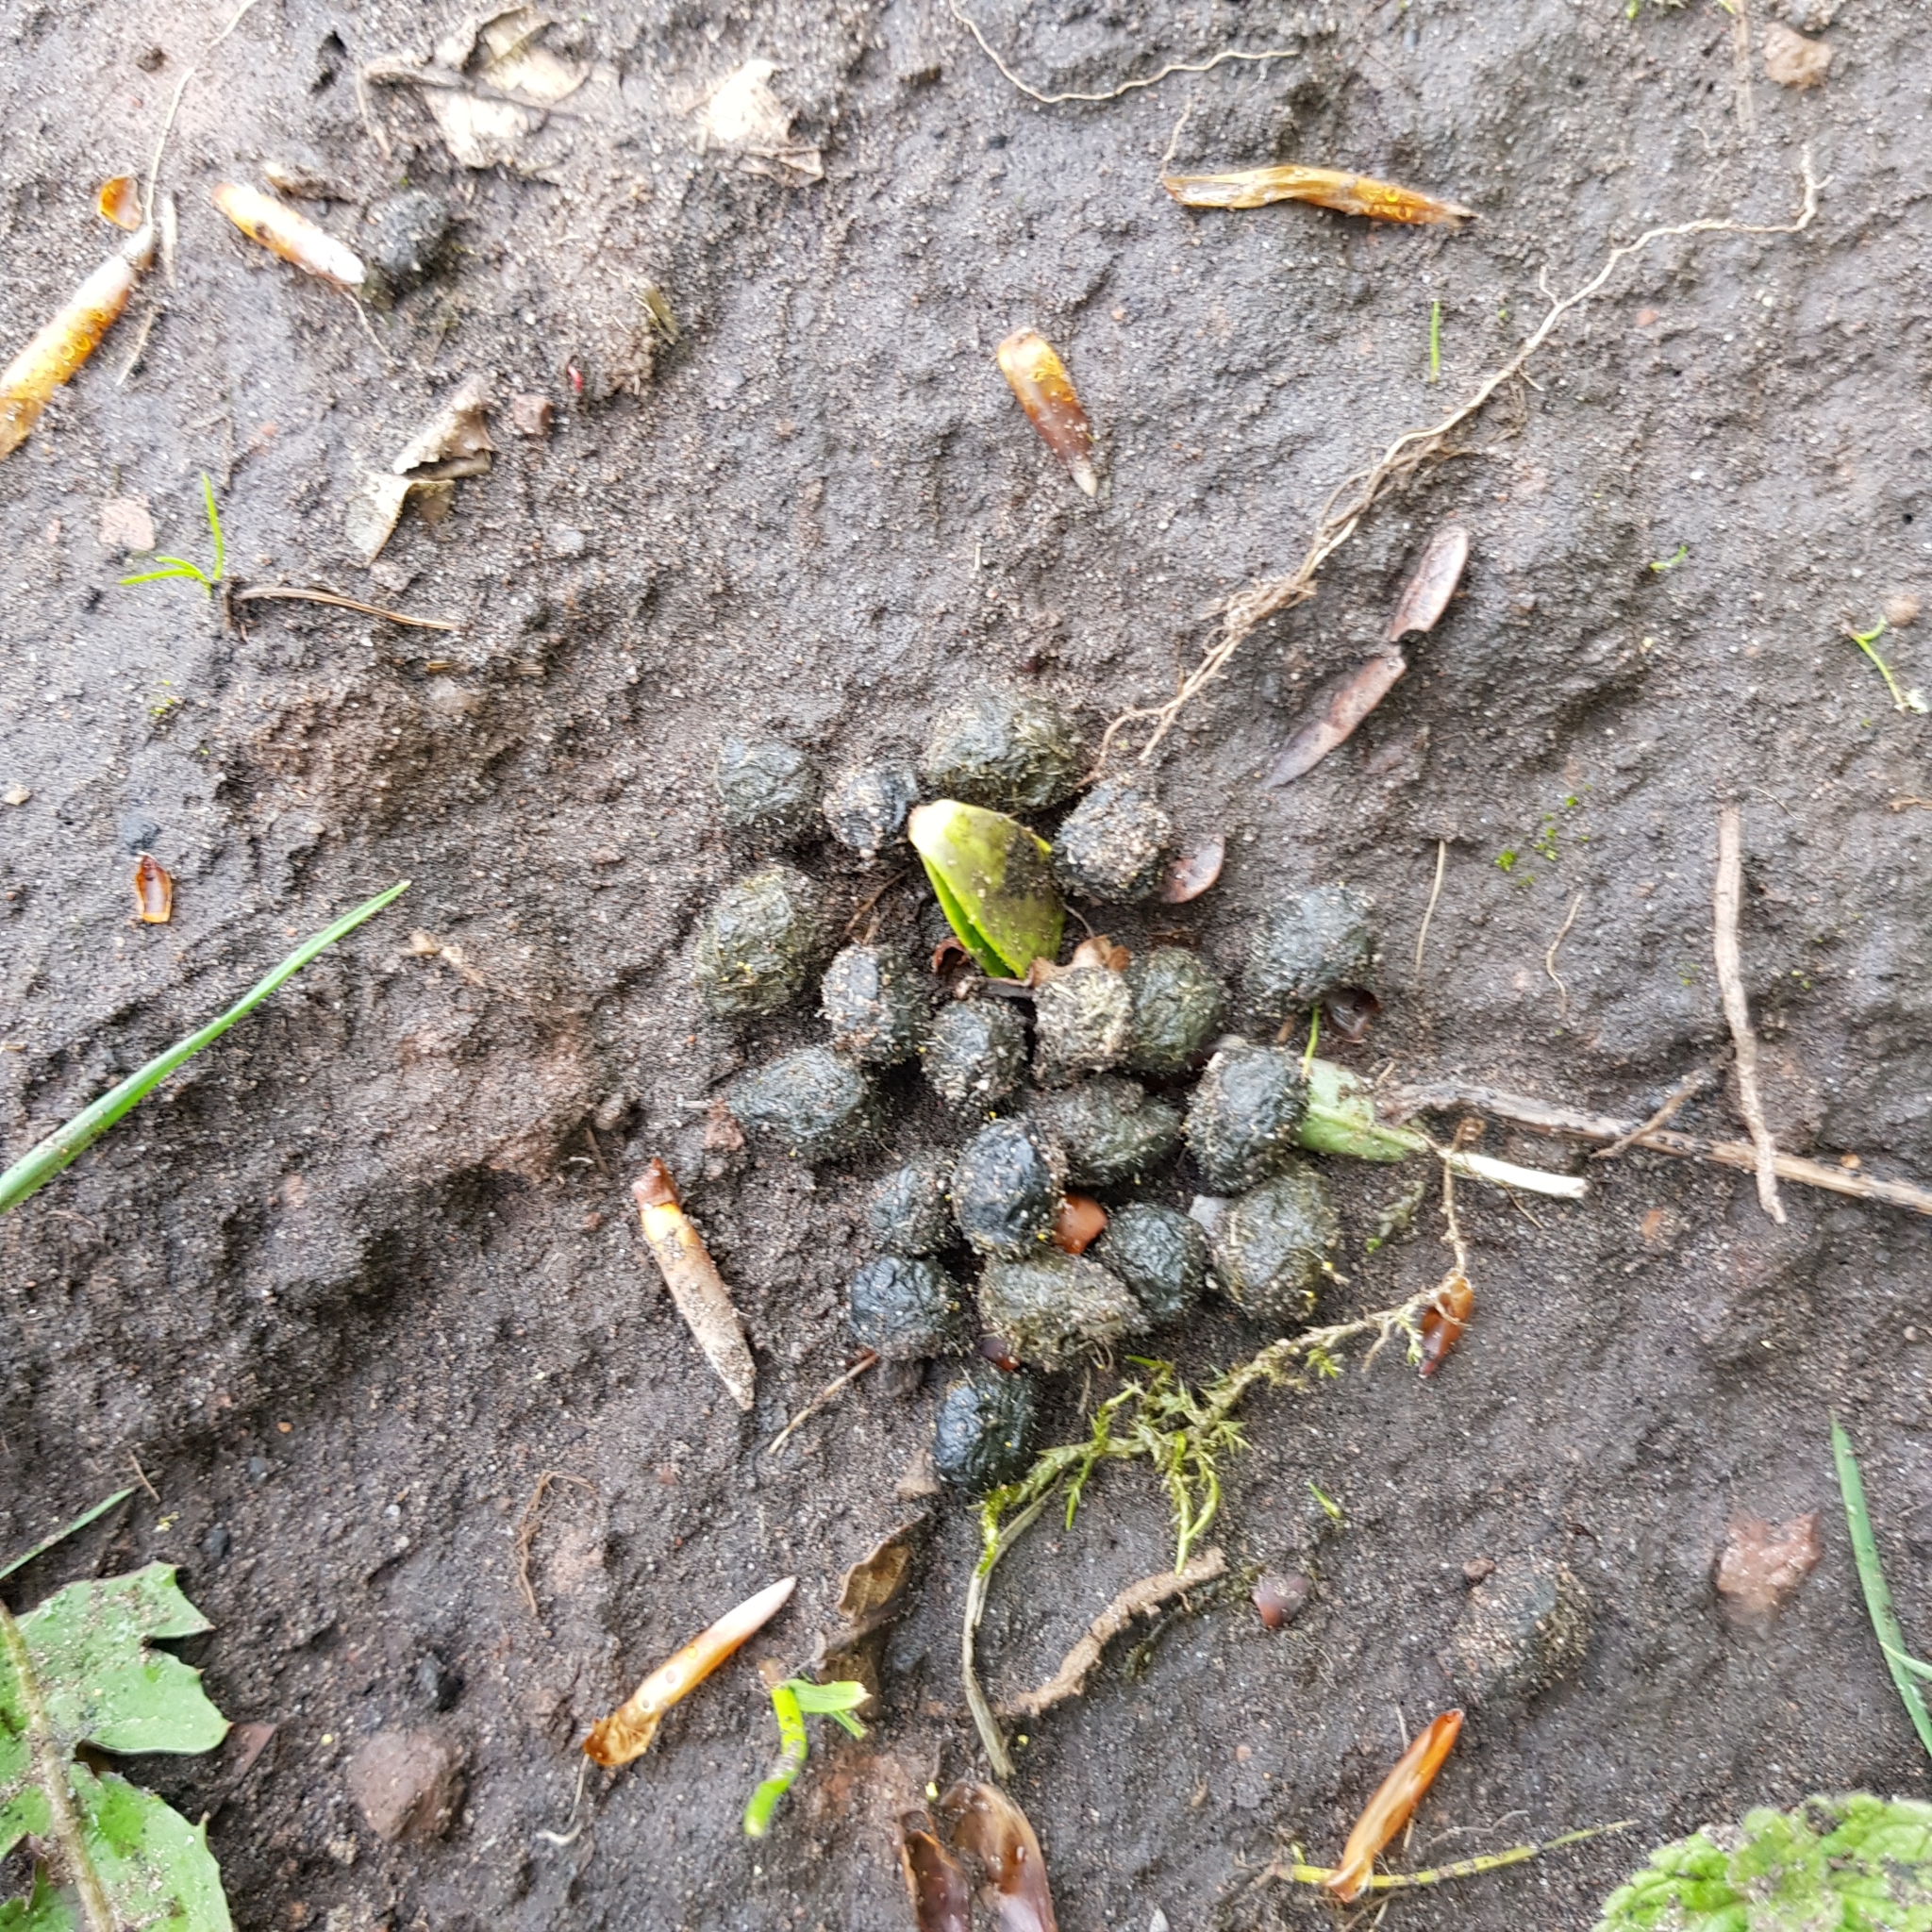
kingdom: Animalia
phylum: Chordata
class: Mammalia
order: Lagomorpha
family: Leporidae
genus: Oryctolagus
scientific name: Oryctolagus cuniculus
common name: European rabbit
